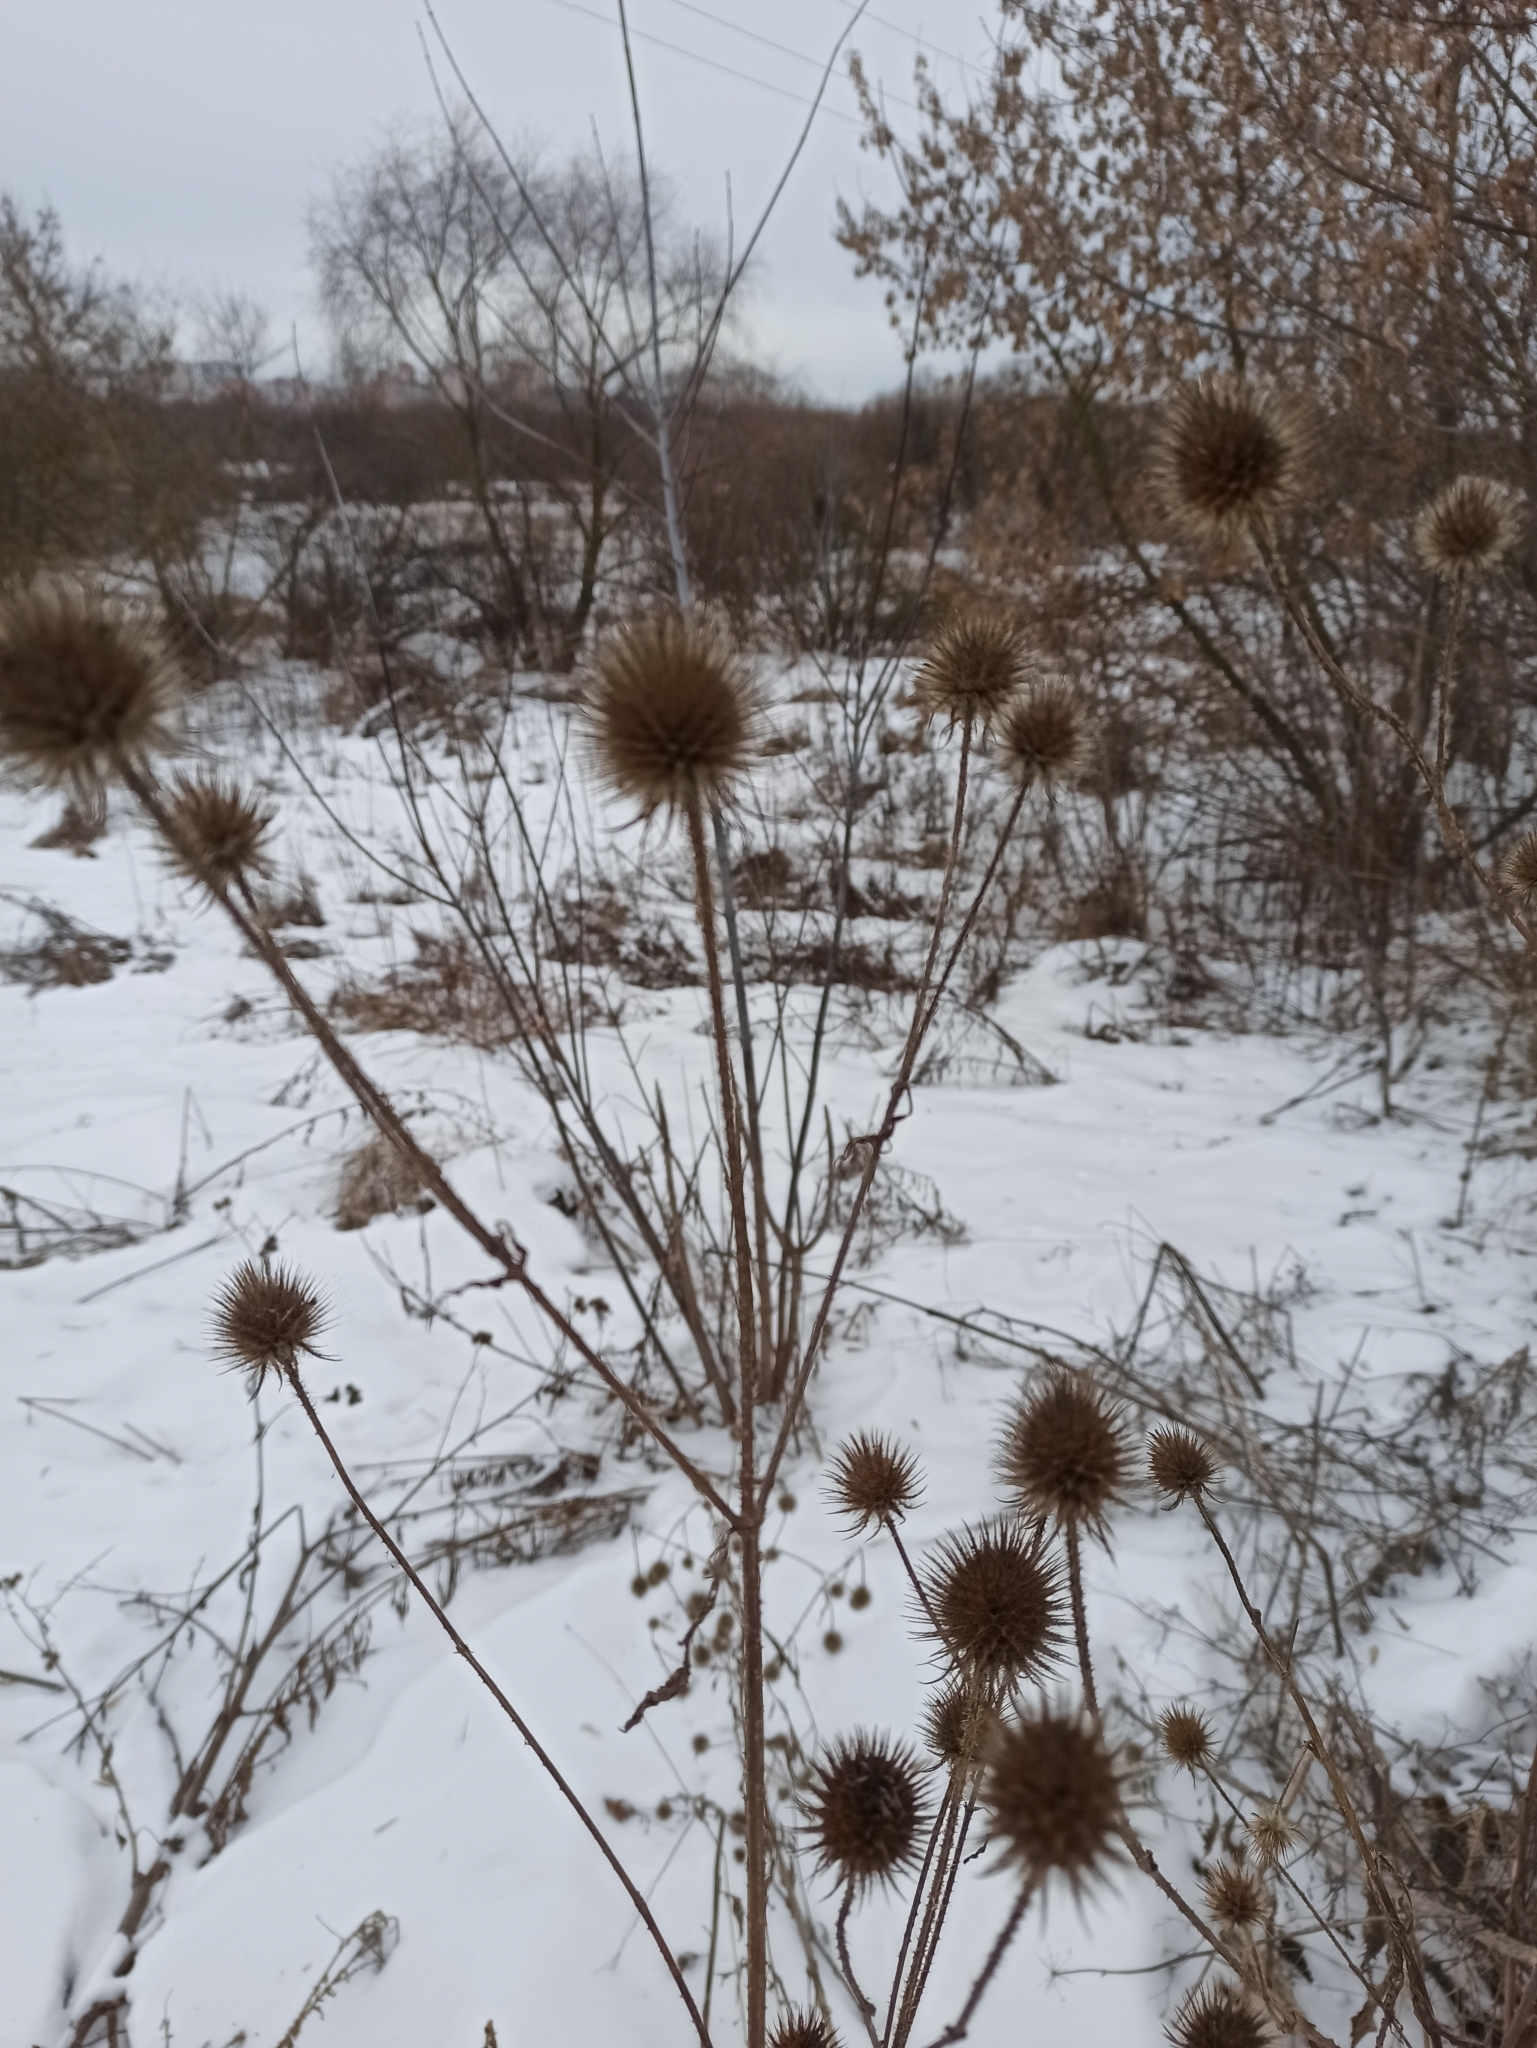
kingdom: Plantae
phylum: Tracheophyta
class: Magnoliopsida
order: Dipsacales
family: Caprifoliaceae
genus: Dipsacus
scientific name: Dipsacus strigosus
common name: Yellow-flowered teasel
